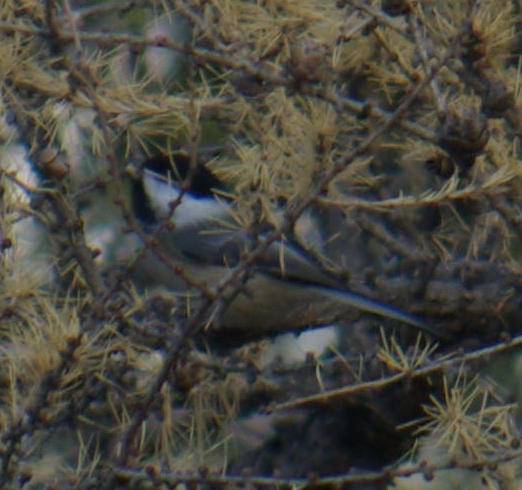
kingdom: Animalia
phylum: Chordata
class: Aves
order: Passeriformes
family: Paridae
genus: Poecile
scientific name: Poecile atricapillus
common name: Black-capped chickadee
